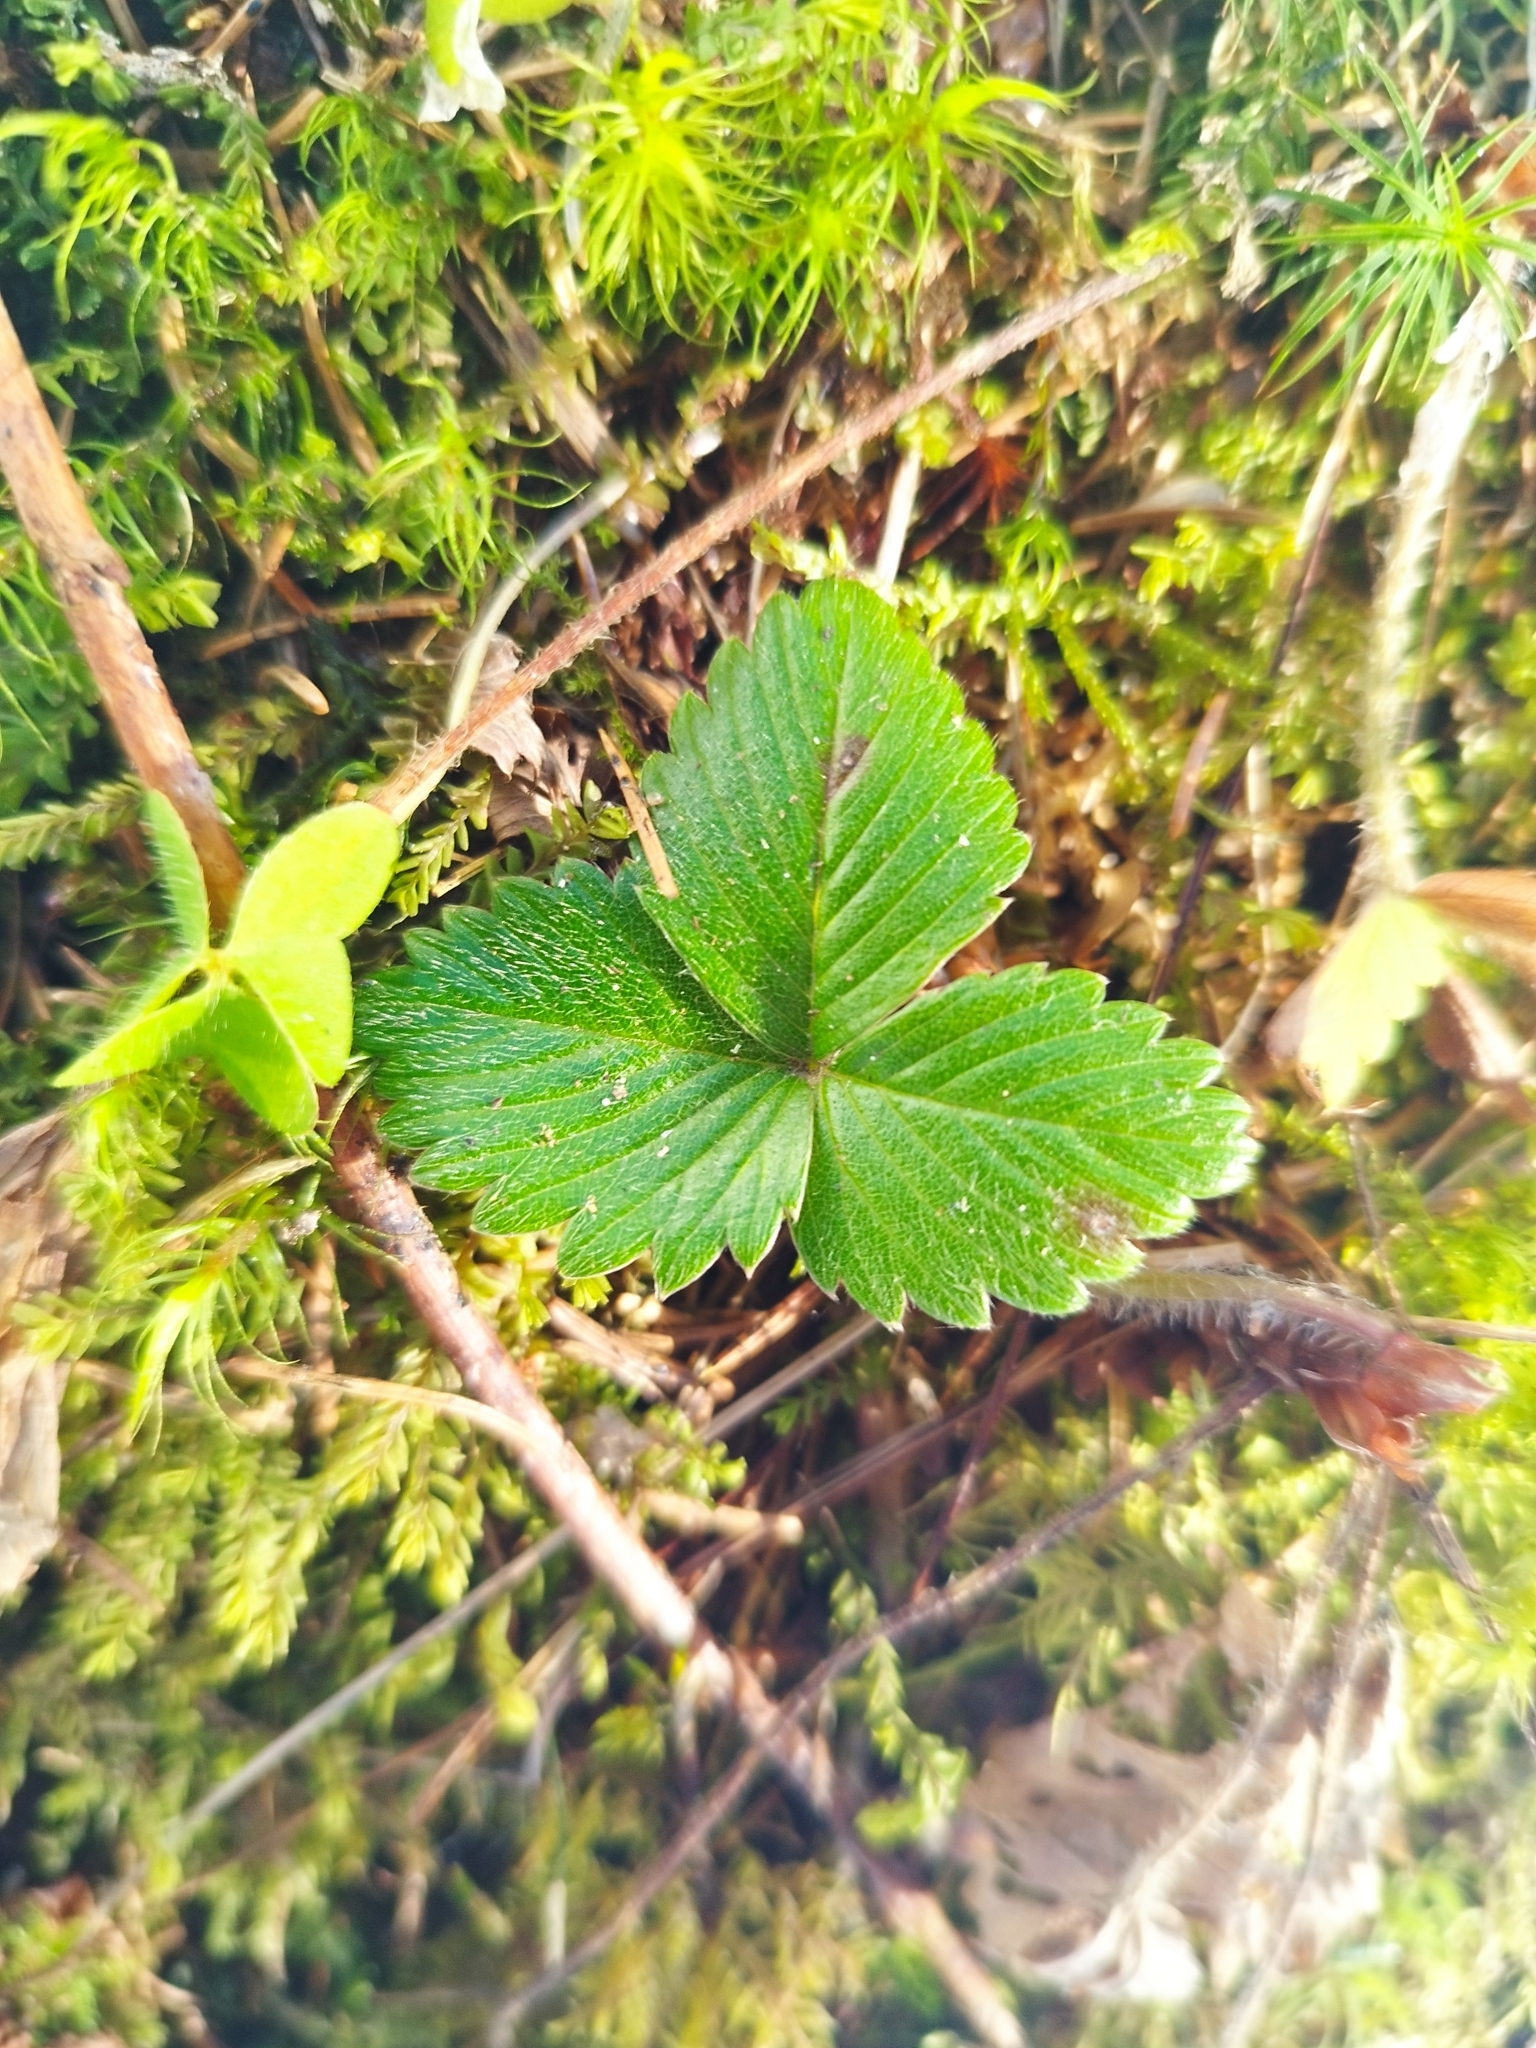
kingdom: Plantae
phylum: Tracheophyta
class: Magnoliopsida
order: Rosales
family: Rosaceae
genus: Fragaria
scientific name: Fragaria vesca
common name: Wild strawberry
